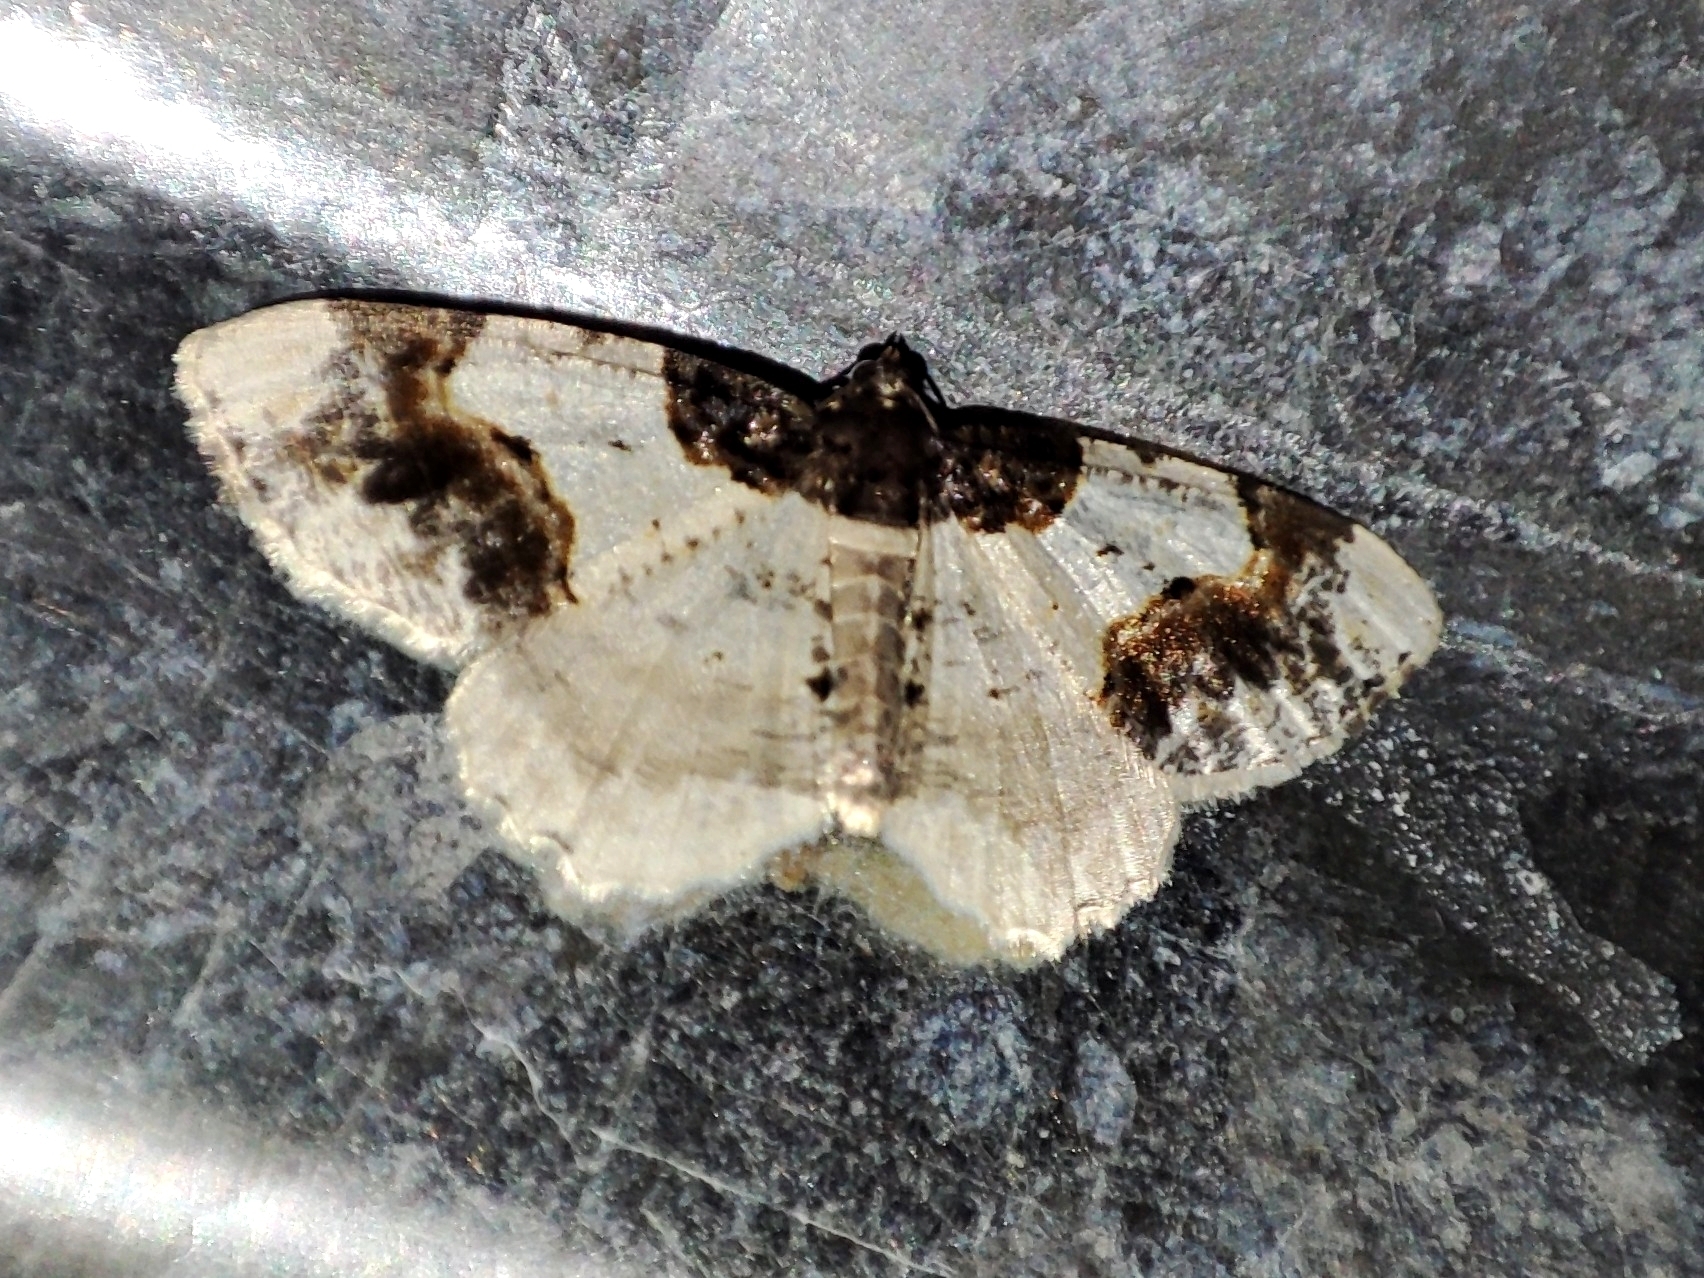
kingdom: Animalia
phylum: Arthropoda
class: Insecta
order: Lepidoptera
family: Geometridae
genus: Ligdia
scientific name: Ligdia adustata
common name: Scorched carpet
